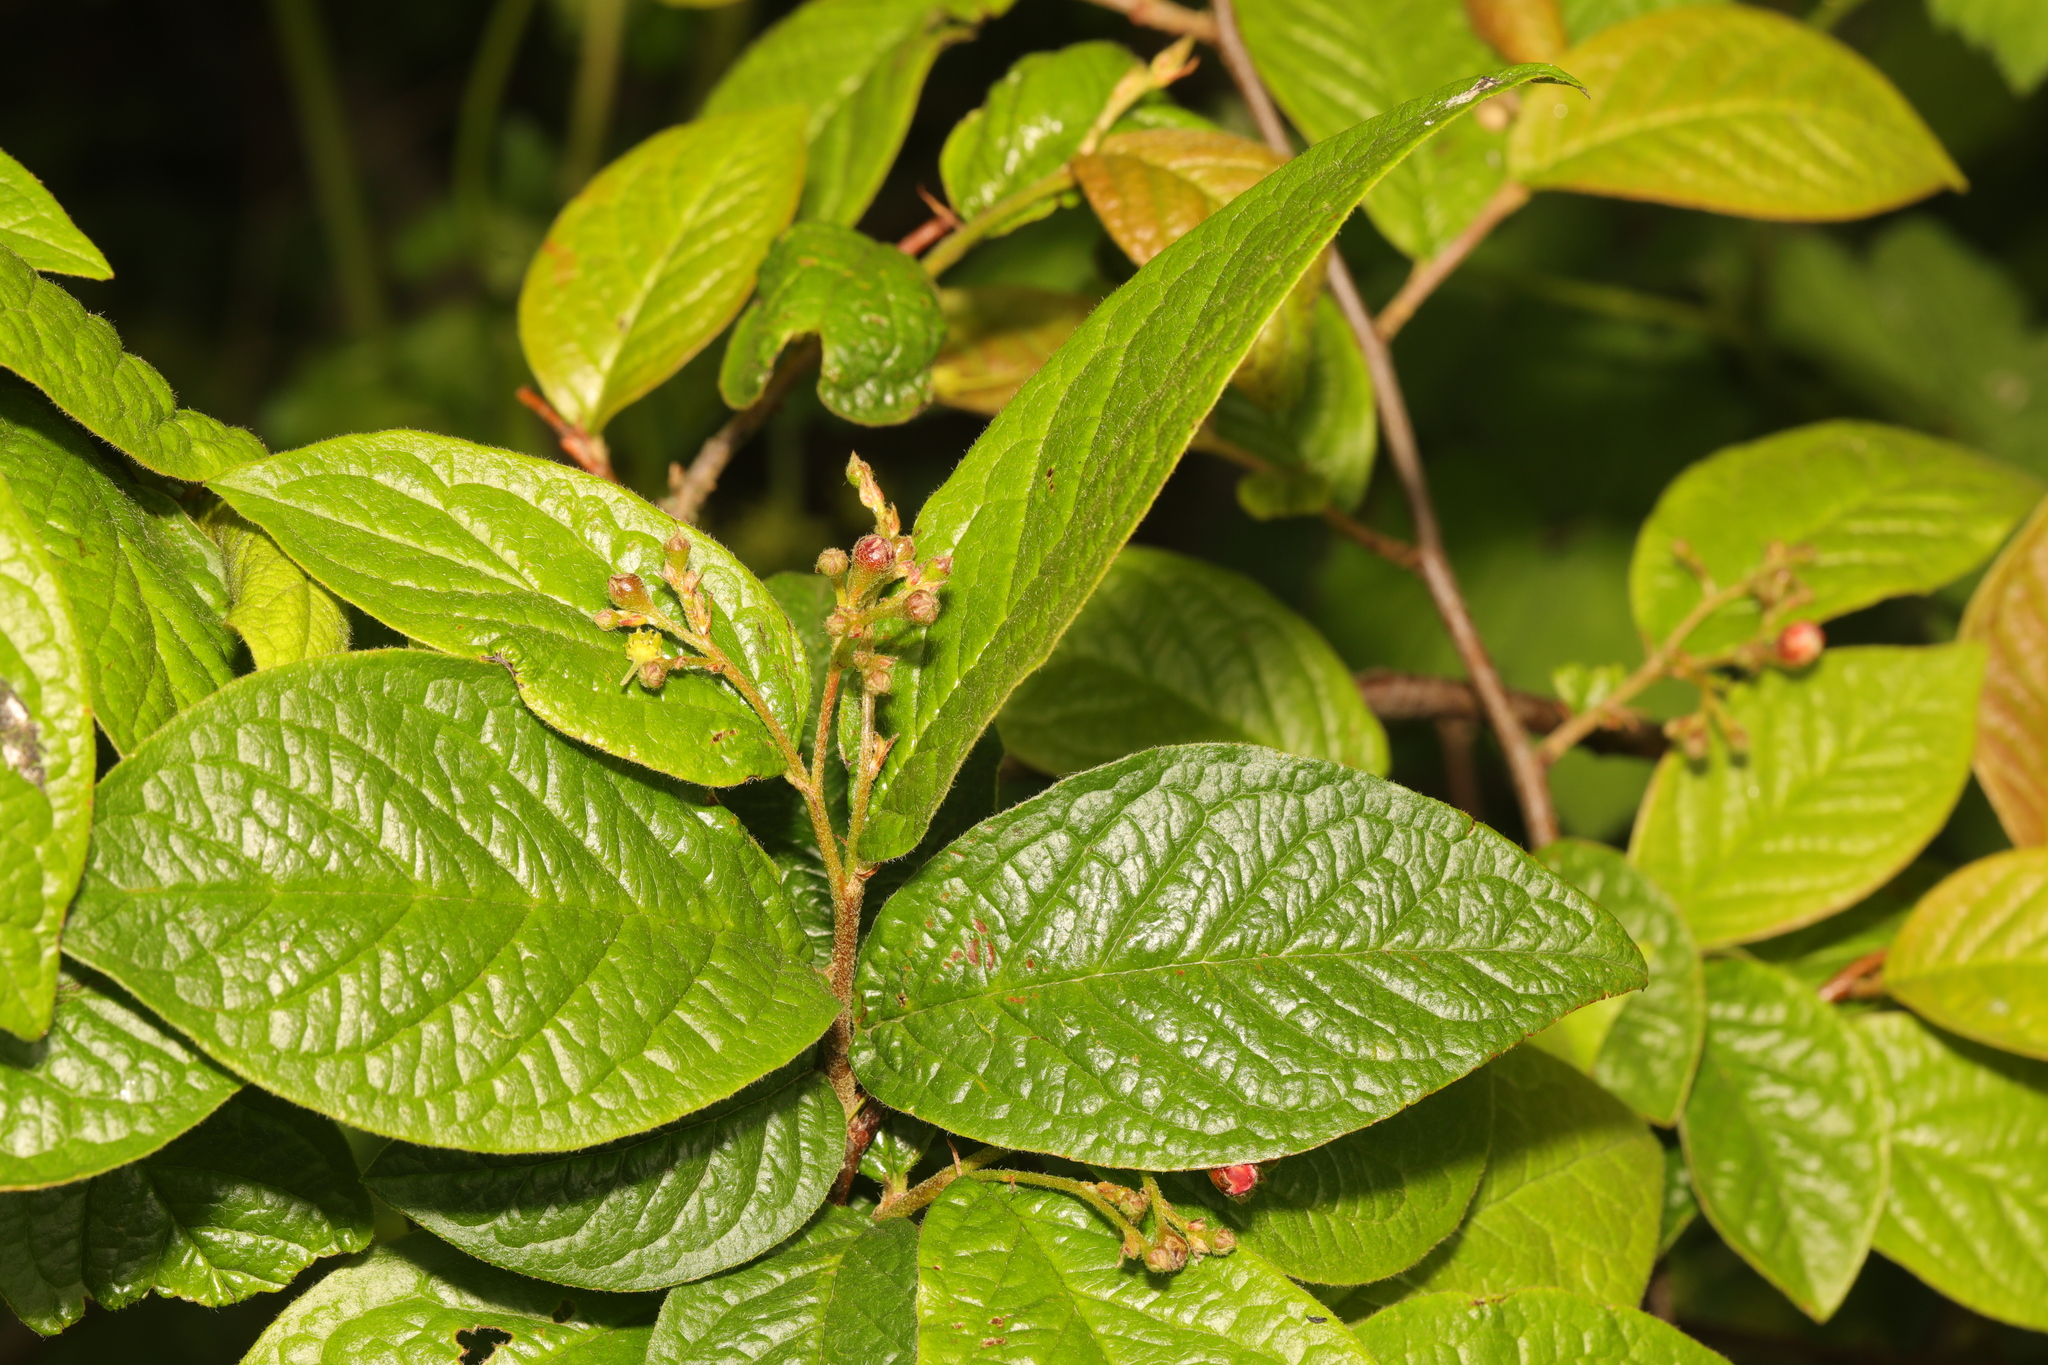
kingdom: Plantae
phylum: Tracheophyta
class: Magnoliopsida
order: Rosales
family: Rosaceae
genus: Cotoneaster
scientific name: Cotoneaster bullatus
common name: Hollyberry cotoneaster
